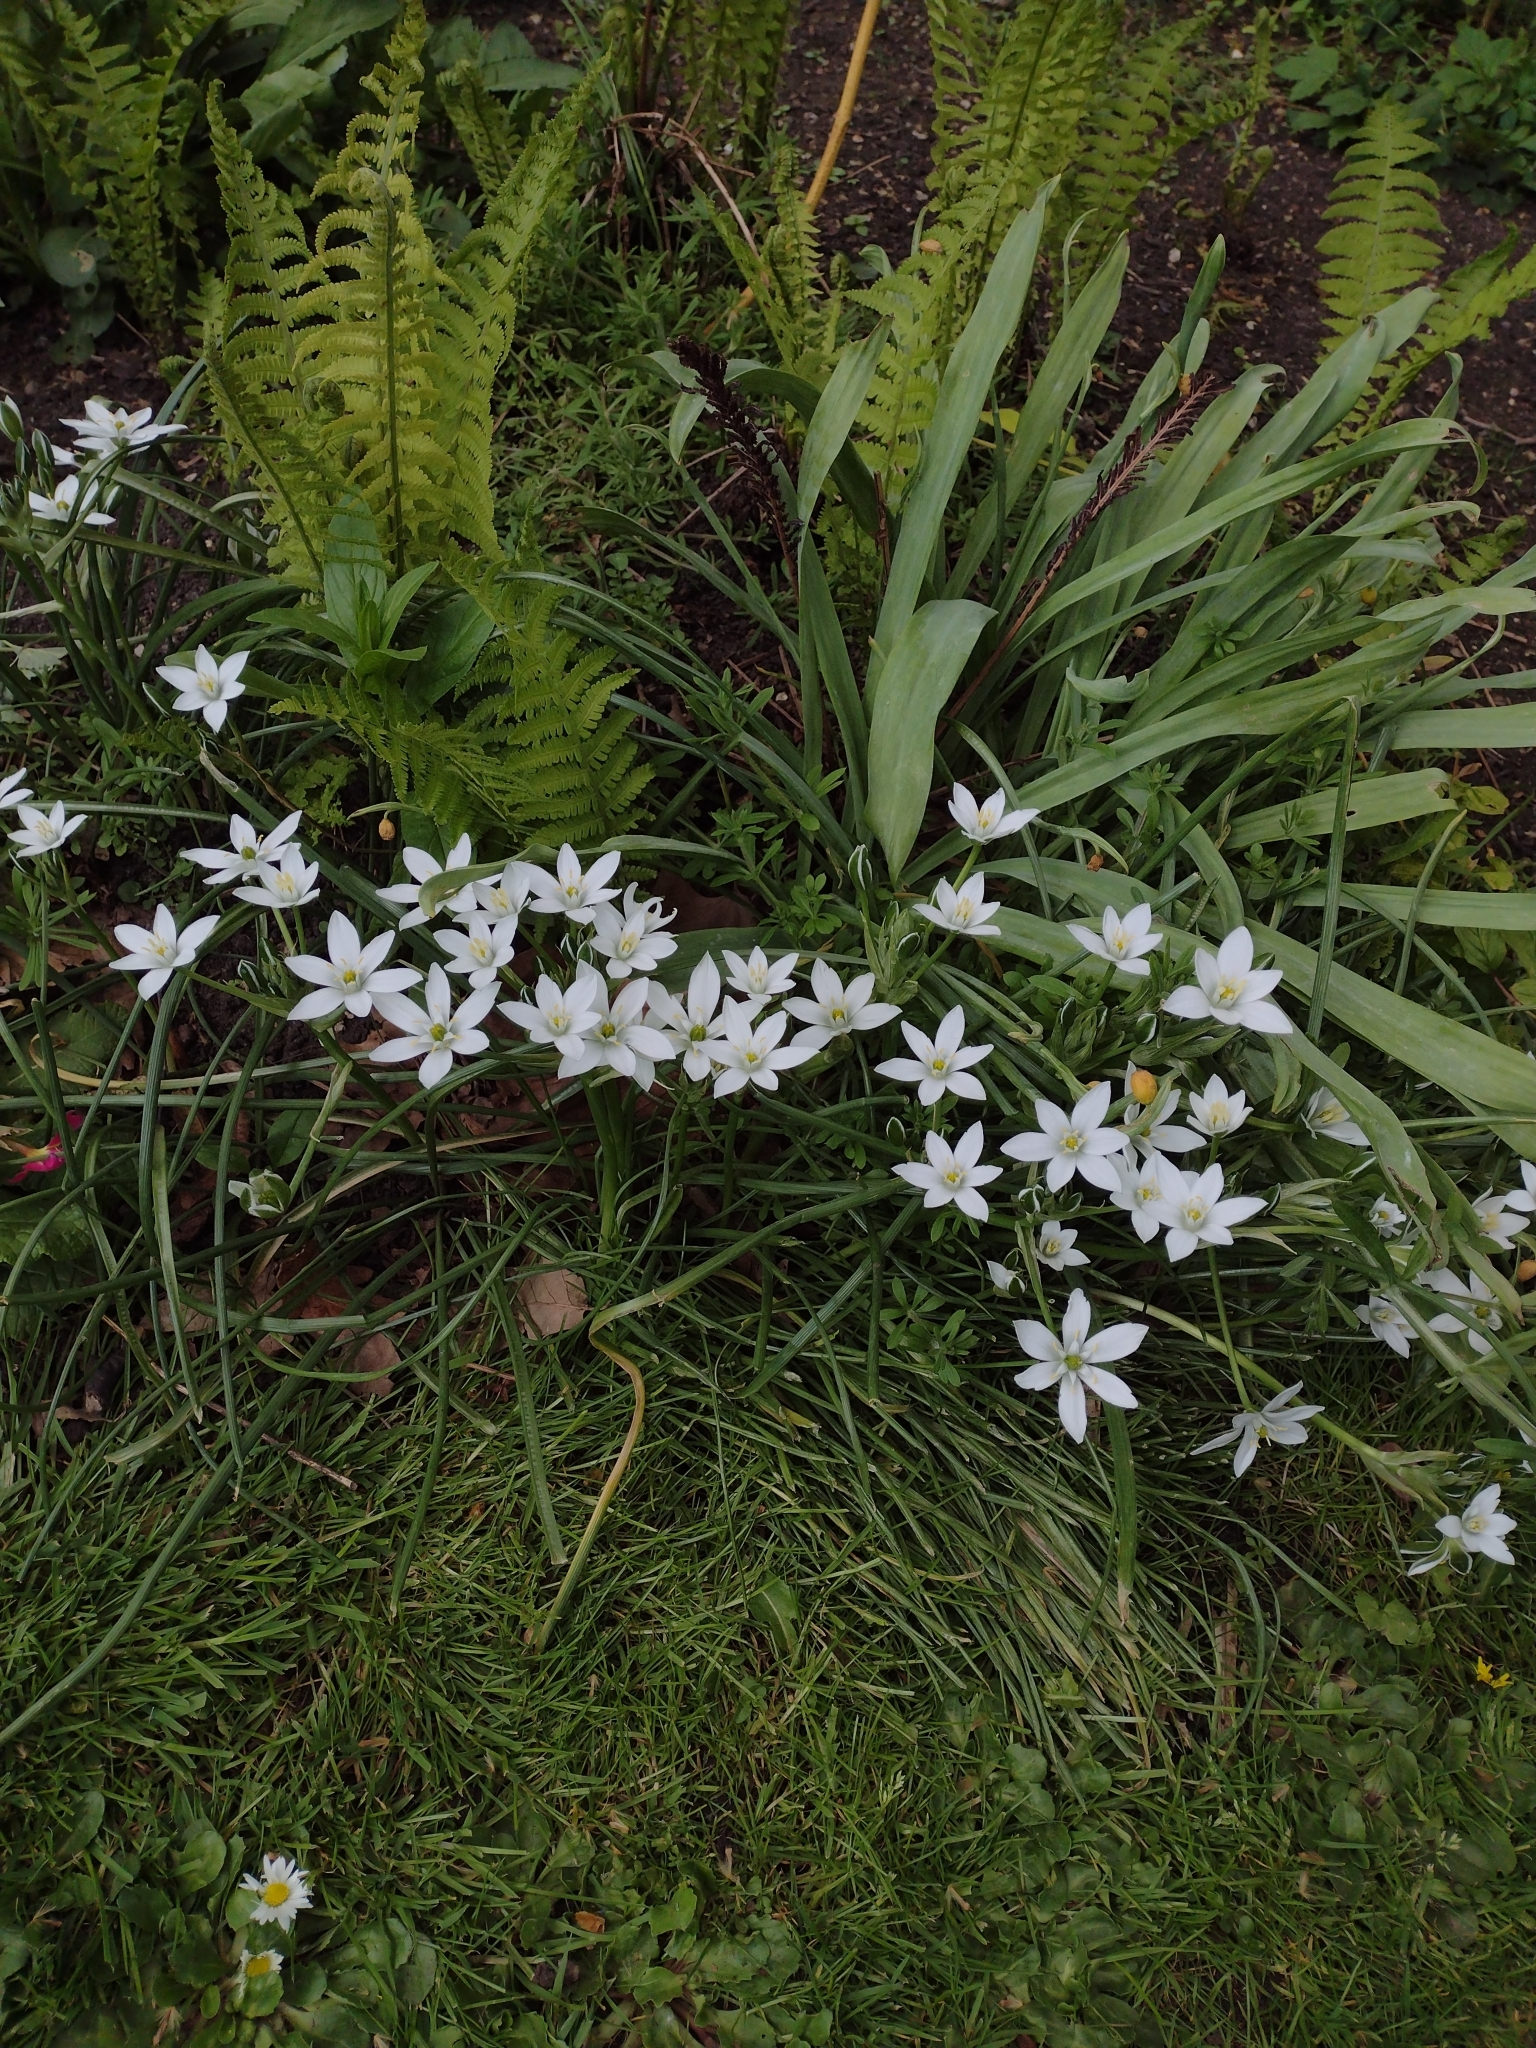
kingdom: Plantae
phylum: Tracheophyta
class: Liliopsida
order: Asparagales
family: Asparagaceae
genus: Ornithogalum
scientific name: Ornithogalum umbellatum
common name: Garden star-of-bethlehem
